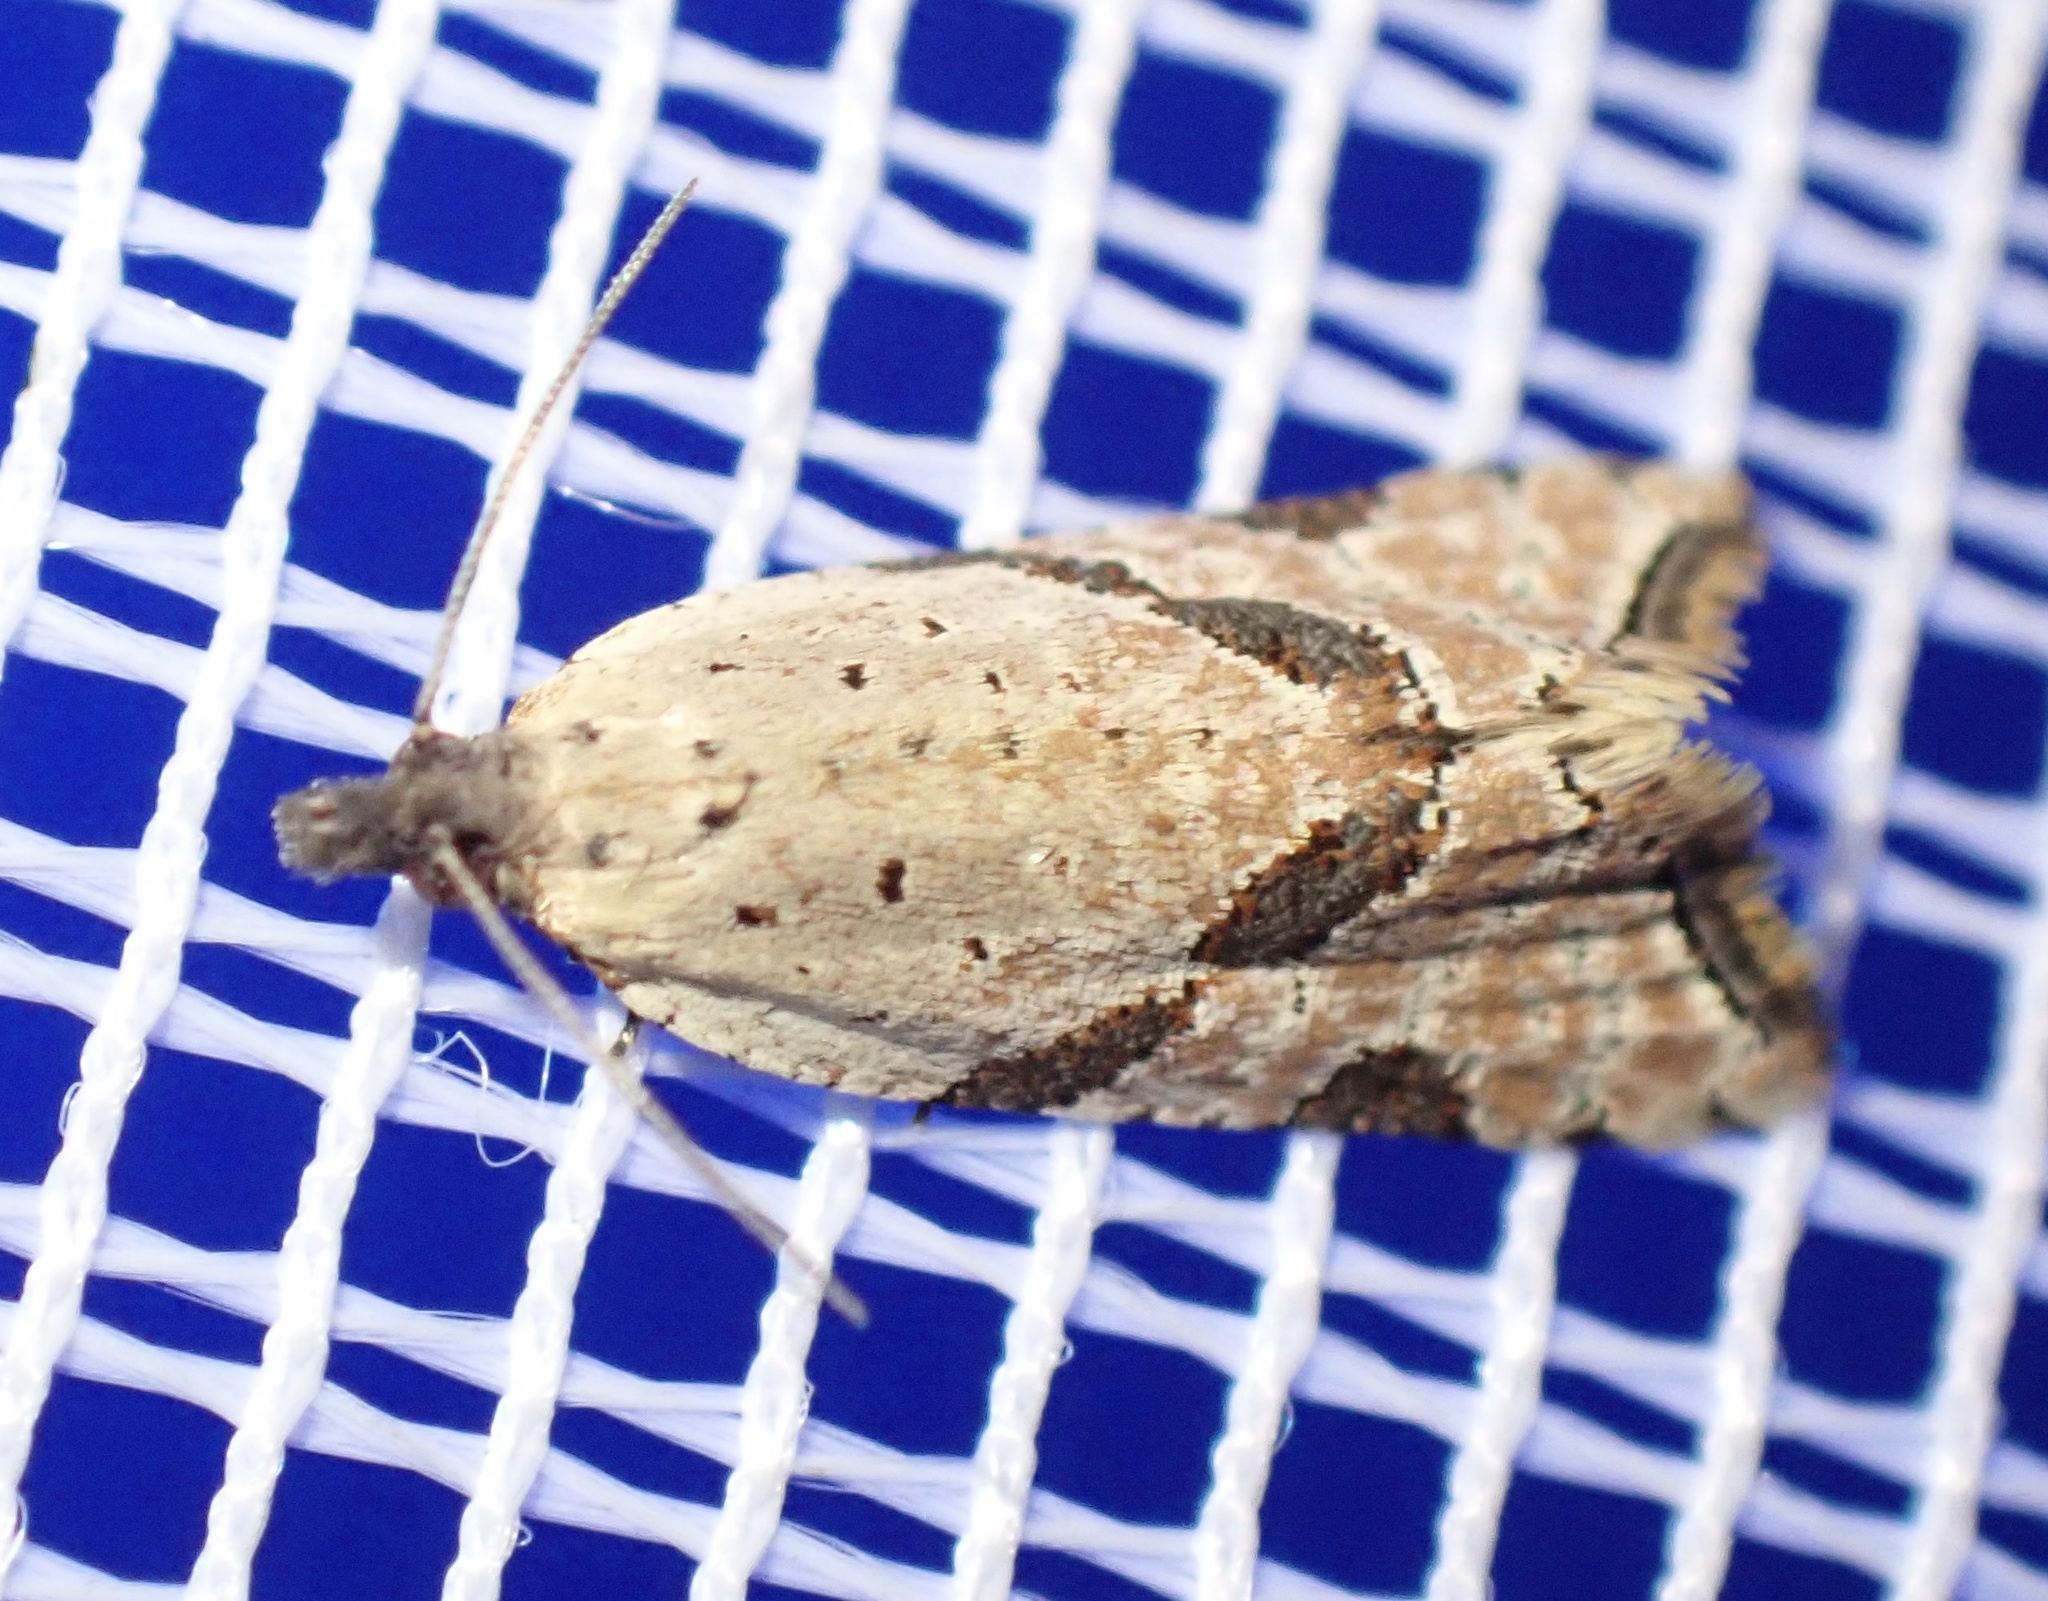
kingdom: Animalia
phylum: Arthropoda
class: Insecta
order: Lepidoptera
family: Tortricidae
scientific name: Tortricidae
